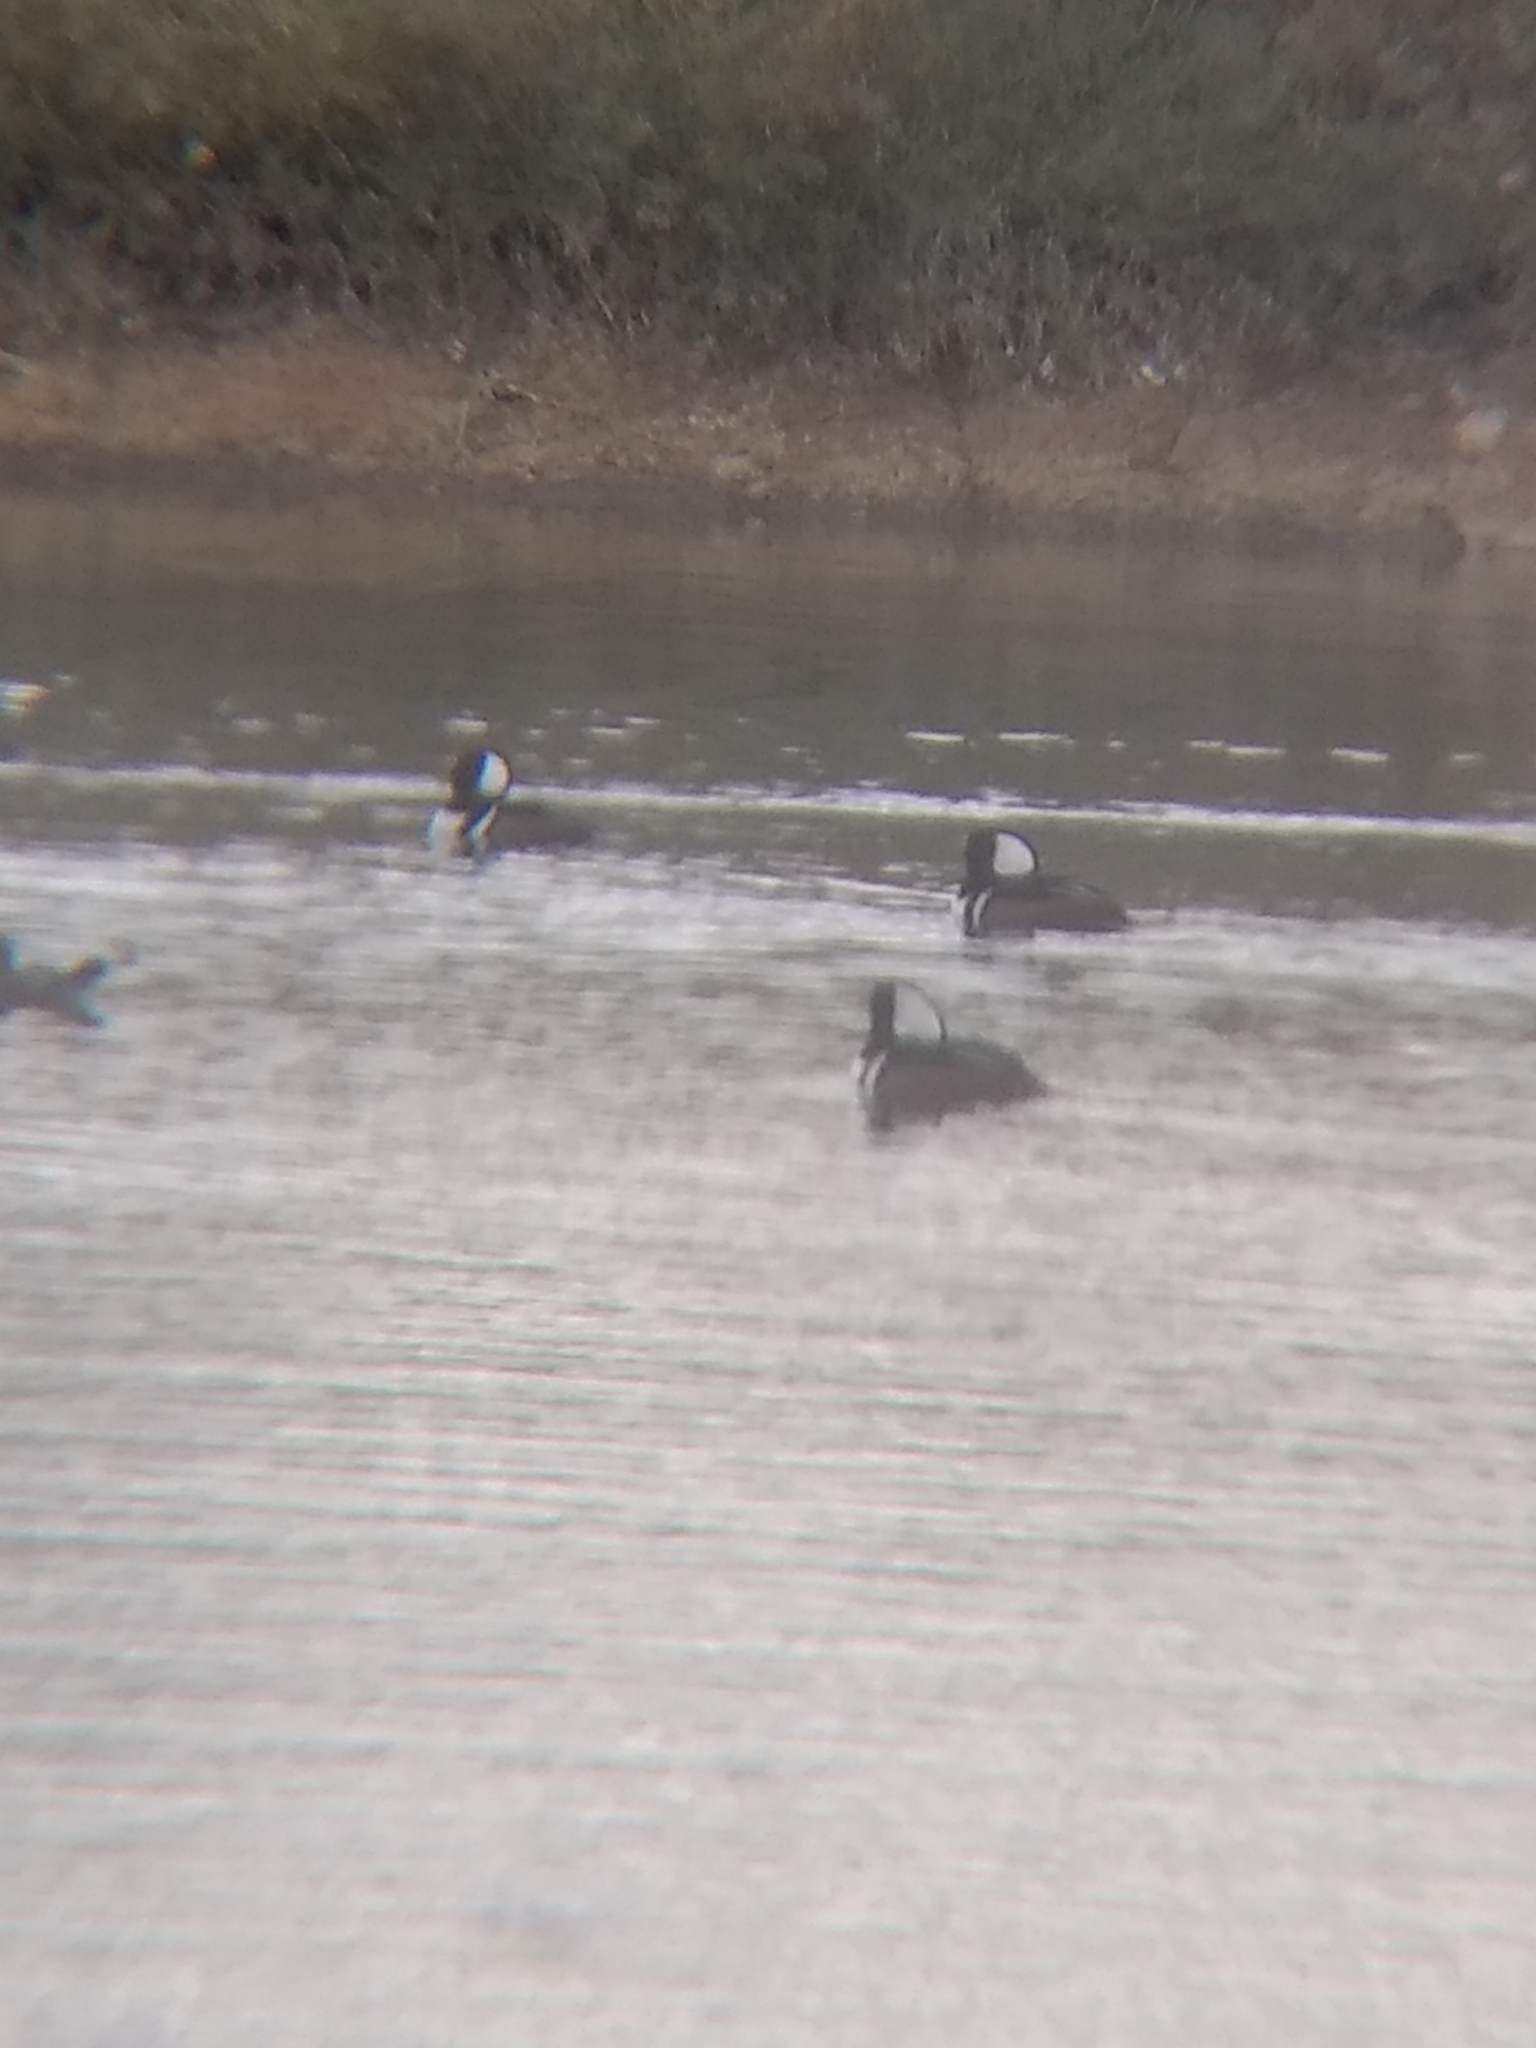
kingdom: Animalia
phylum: Chordata
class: Aves
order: Anseriformes
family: Anatidae
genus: Lophodytes
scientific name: Lophodytes cucullatus
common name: Hooded merganser
